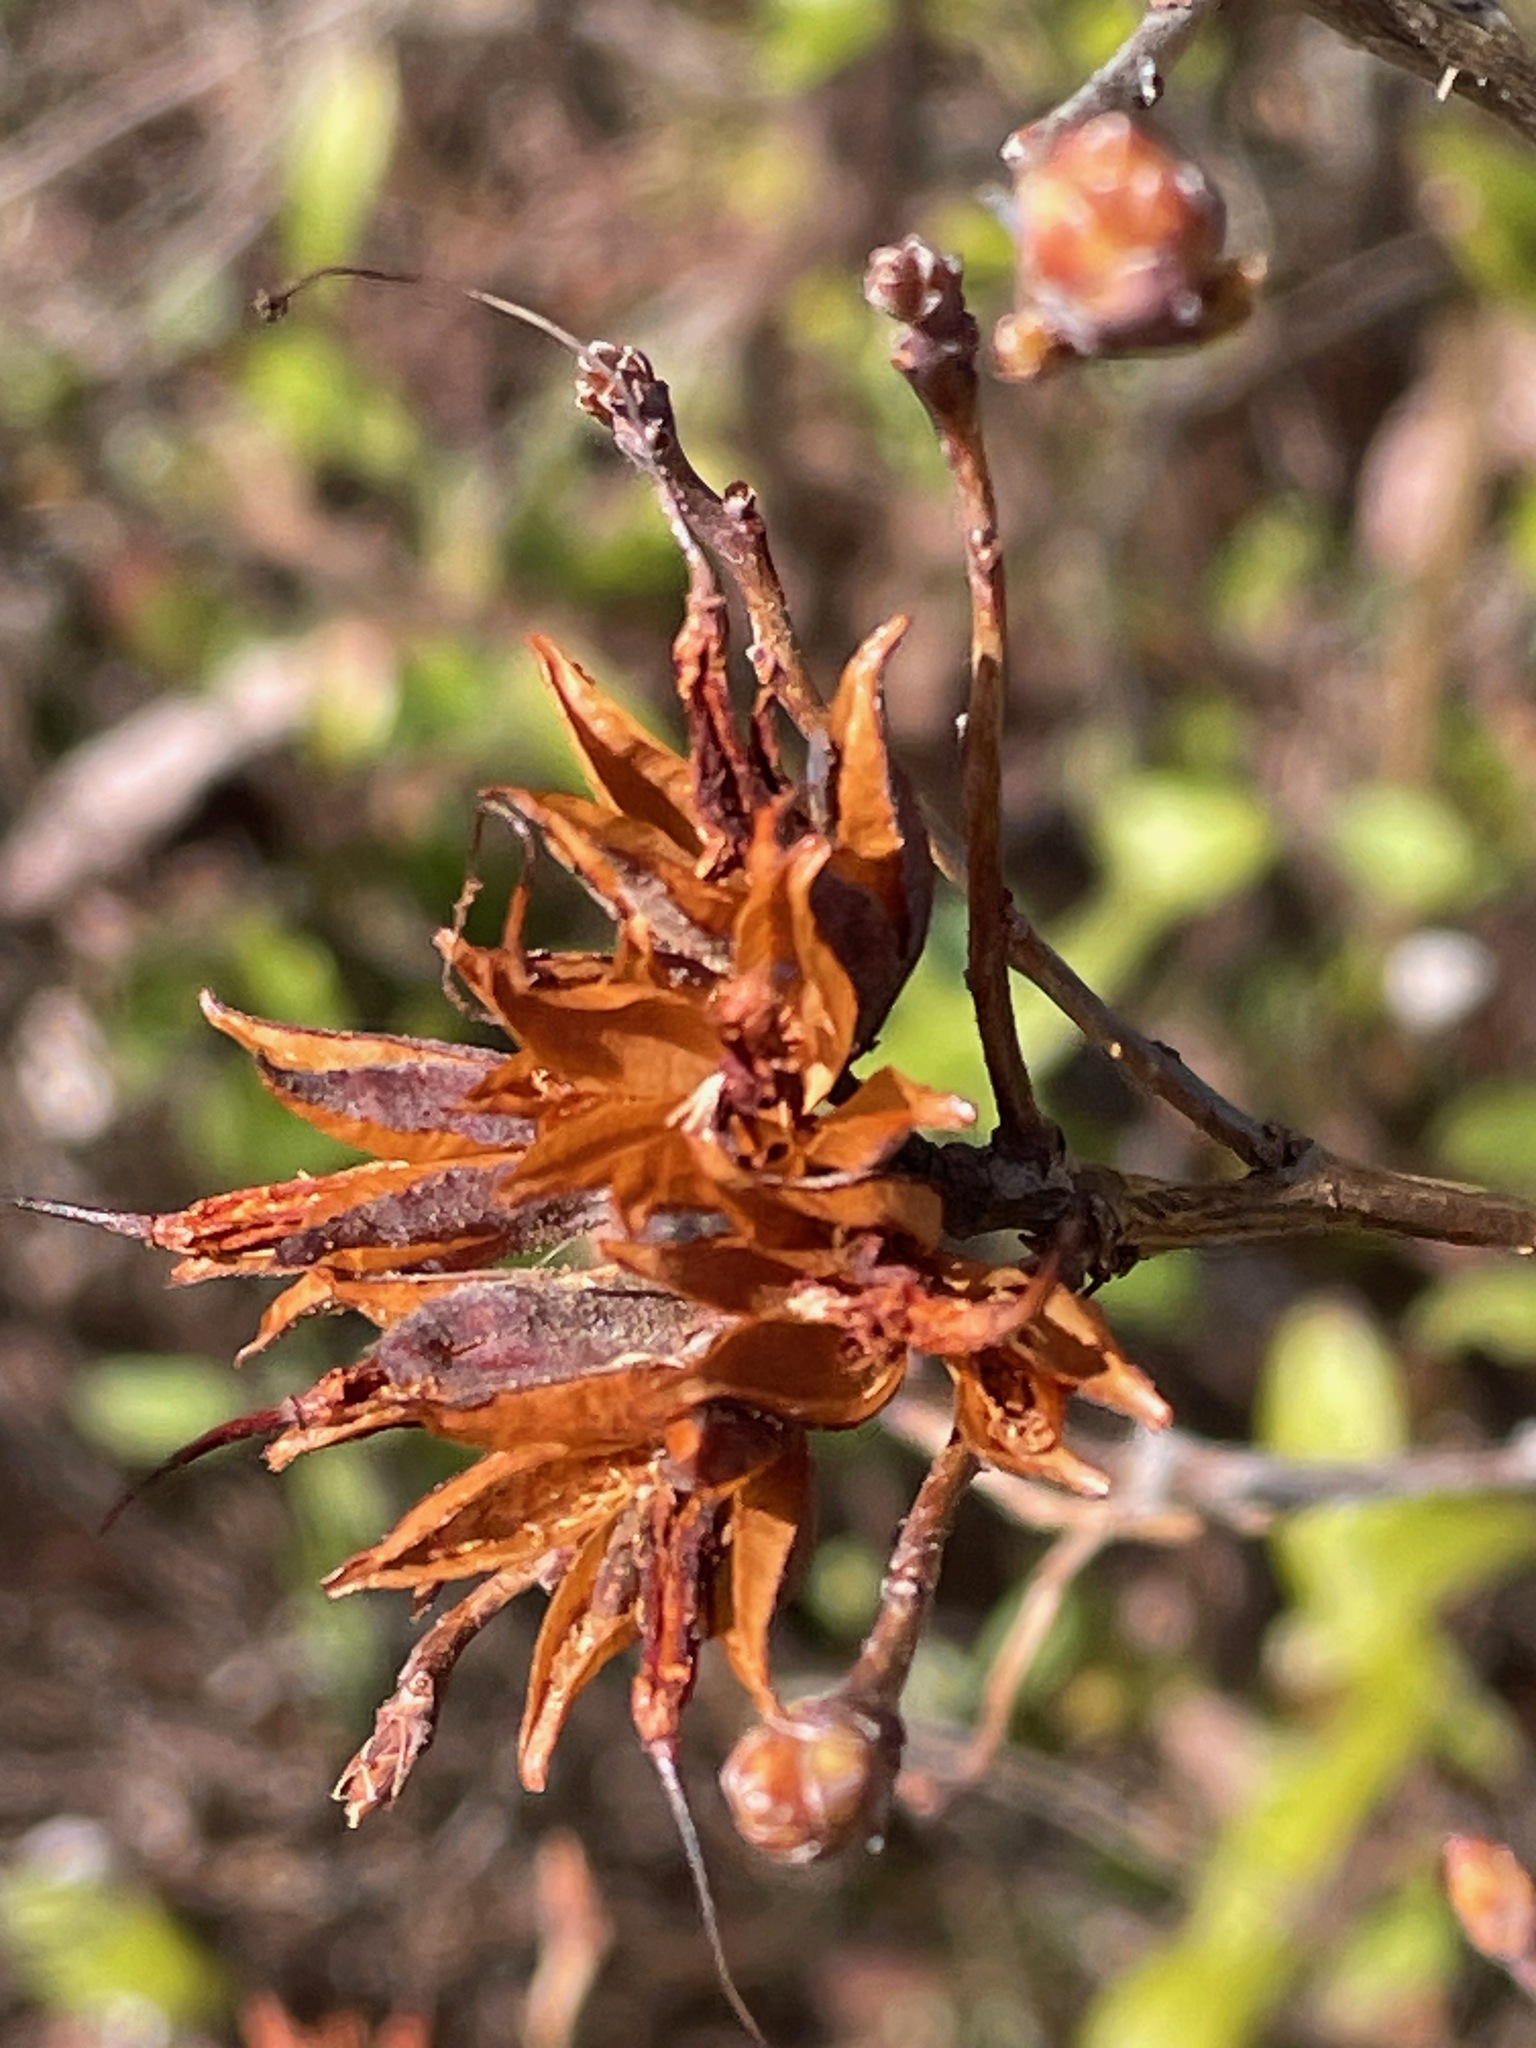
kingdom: Plantae
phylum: Tracheophyta
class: Magnoliopsida
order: Ericales
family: Ericaceae
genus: Rhododendron
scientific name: Rhododendron canadense
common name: Rhodora
